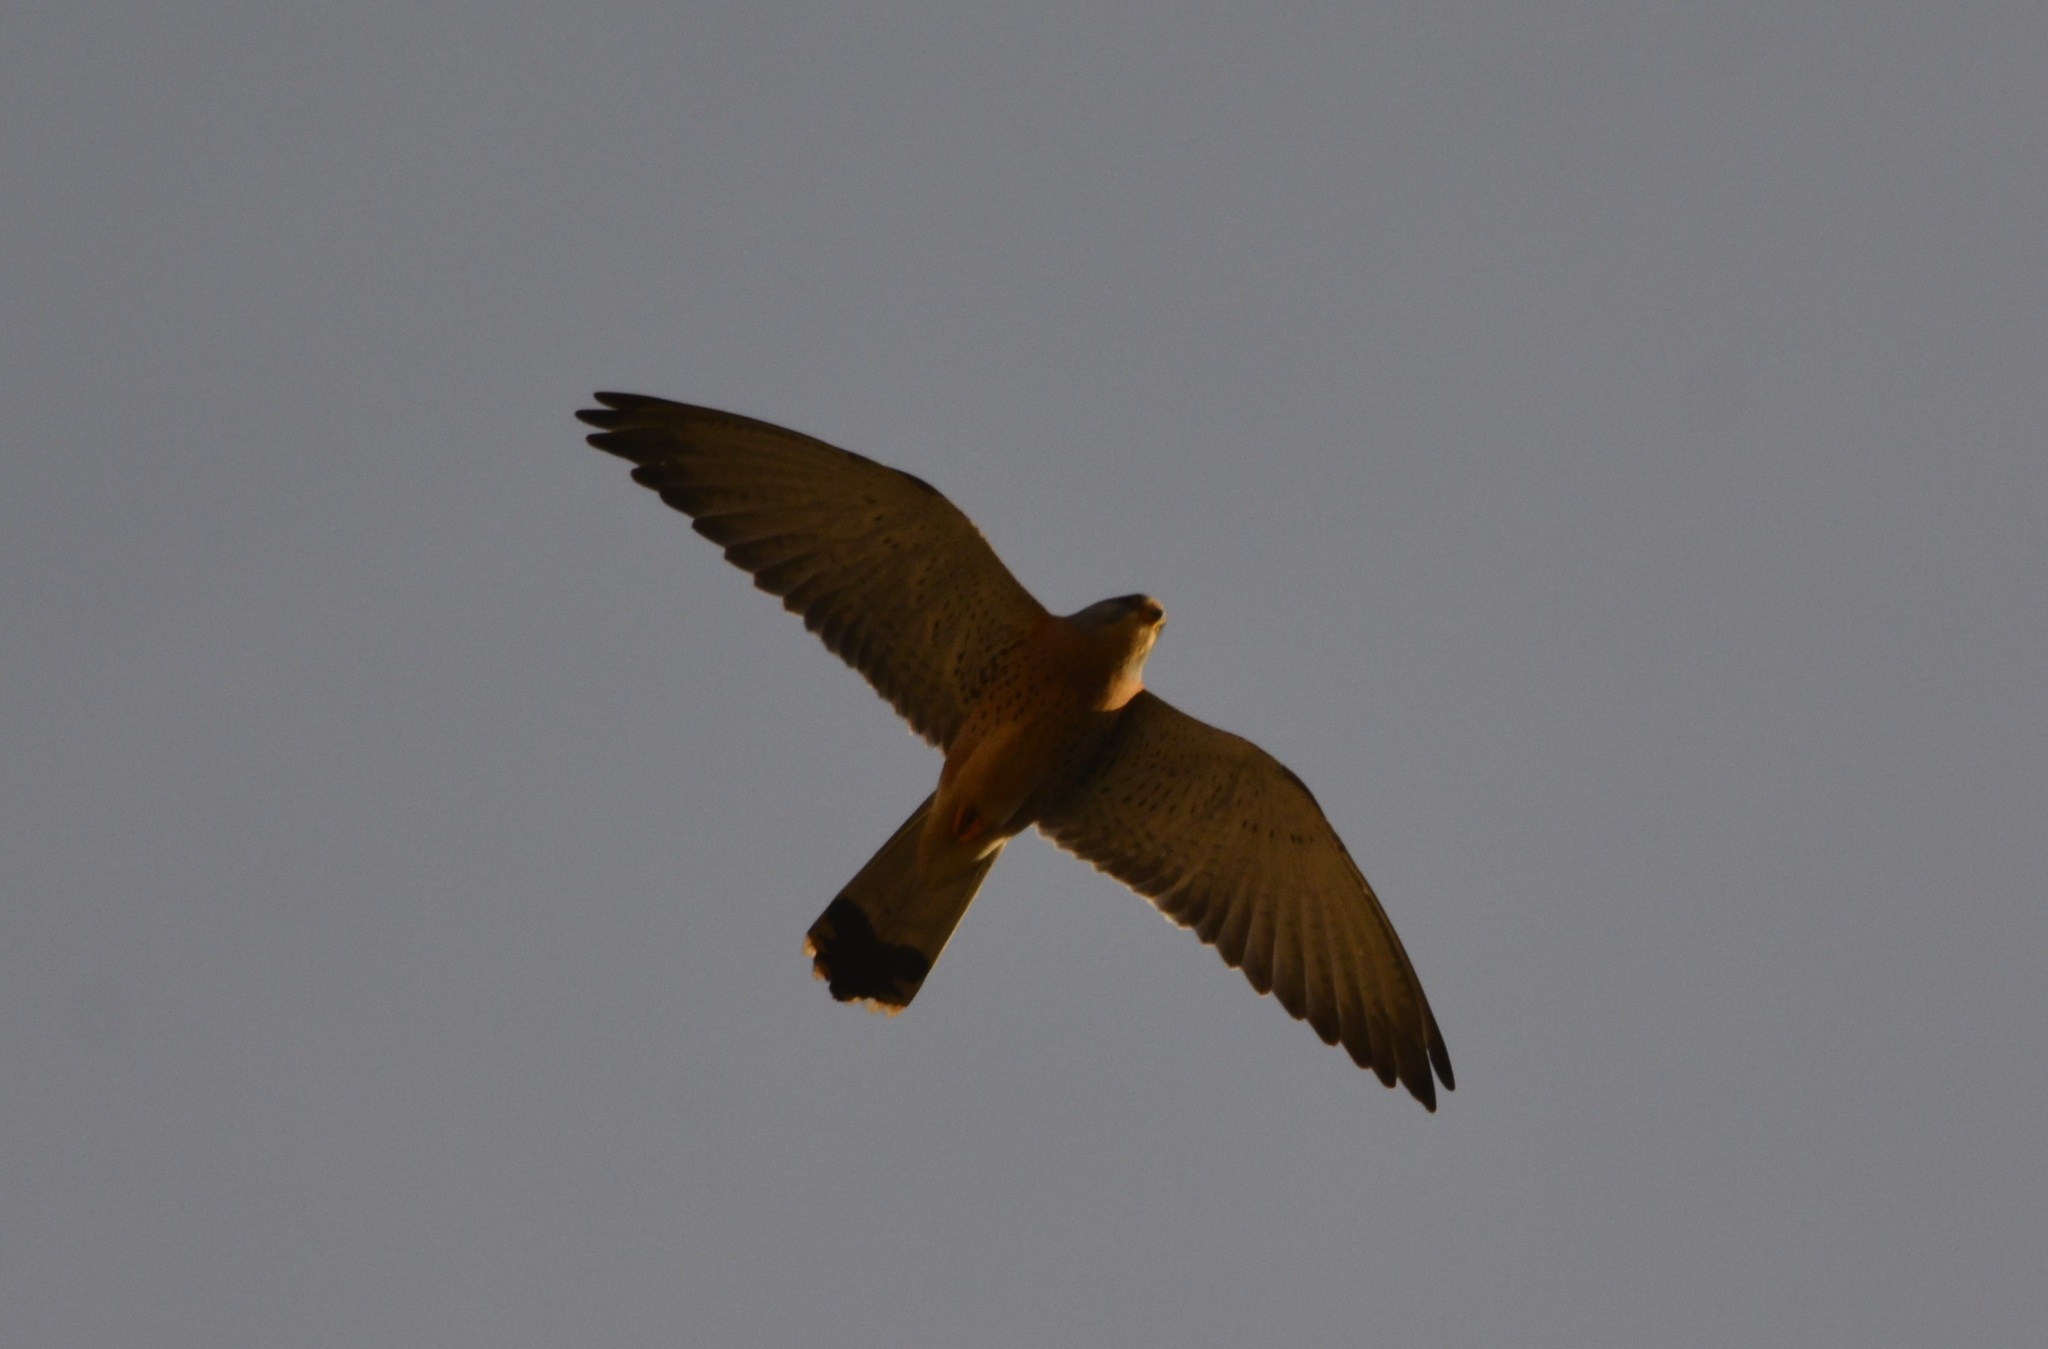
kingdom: Animalia
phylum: Chordata
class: Aves
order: Falconiformes
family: Falconidae
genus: Falco
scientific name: Falco naumanni
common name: Lesser kestrel
